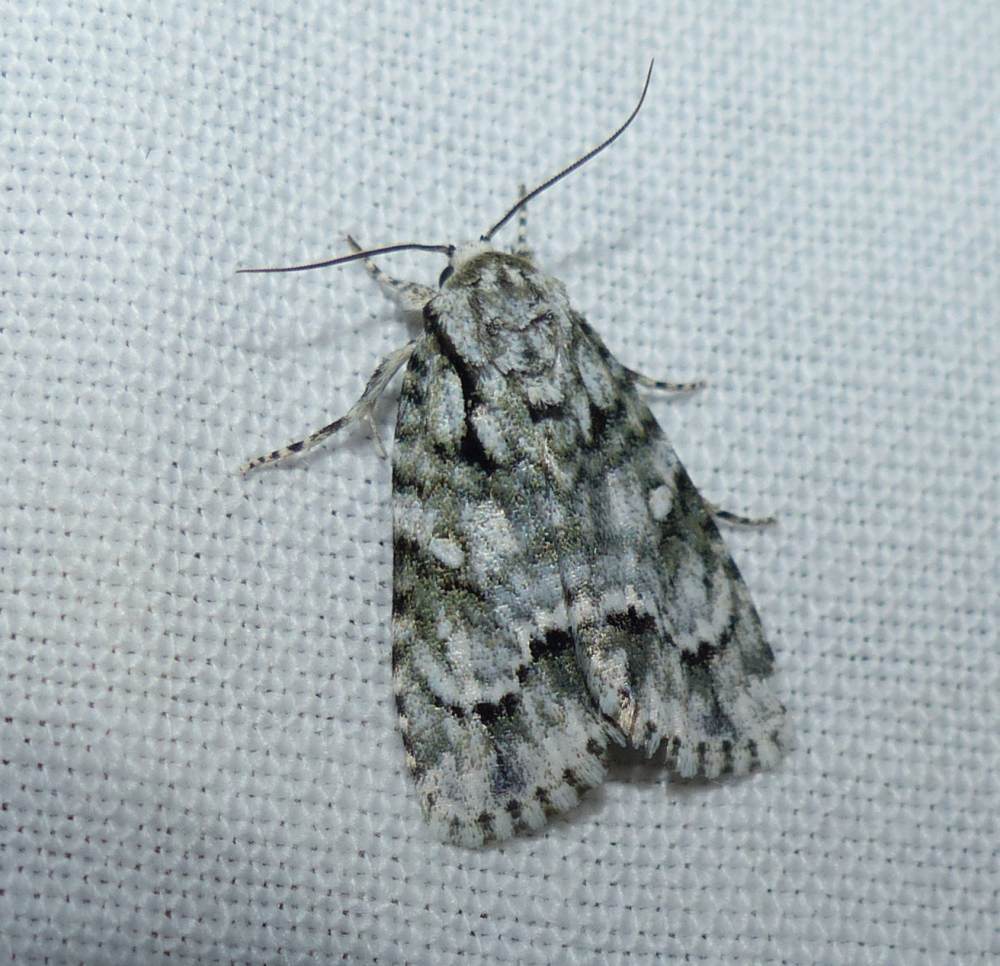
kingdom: Animalia
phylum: Arthropoda
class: Insecta
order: Lepidoptera
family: Noctuidae
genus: Acronicta
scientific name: Acronicta vinnula
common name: Delightful dagger
